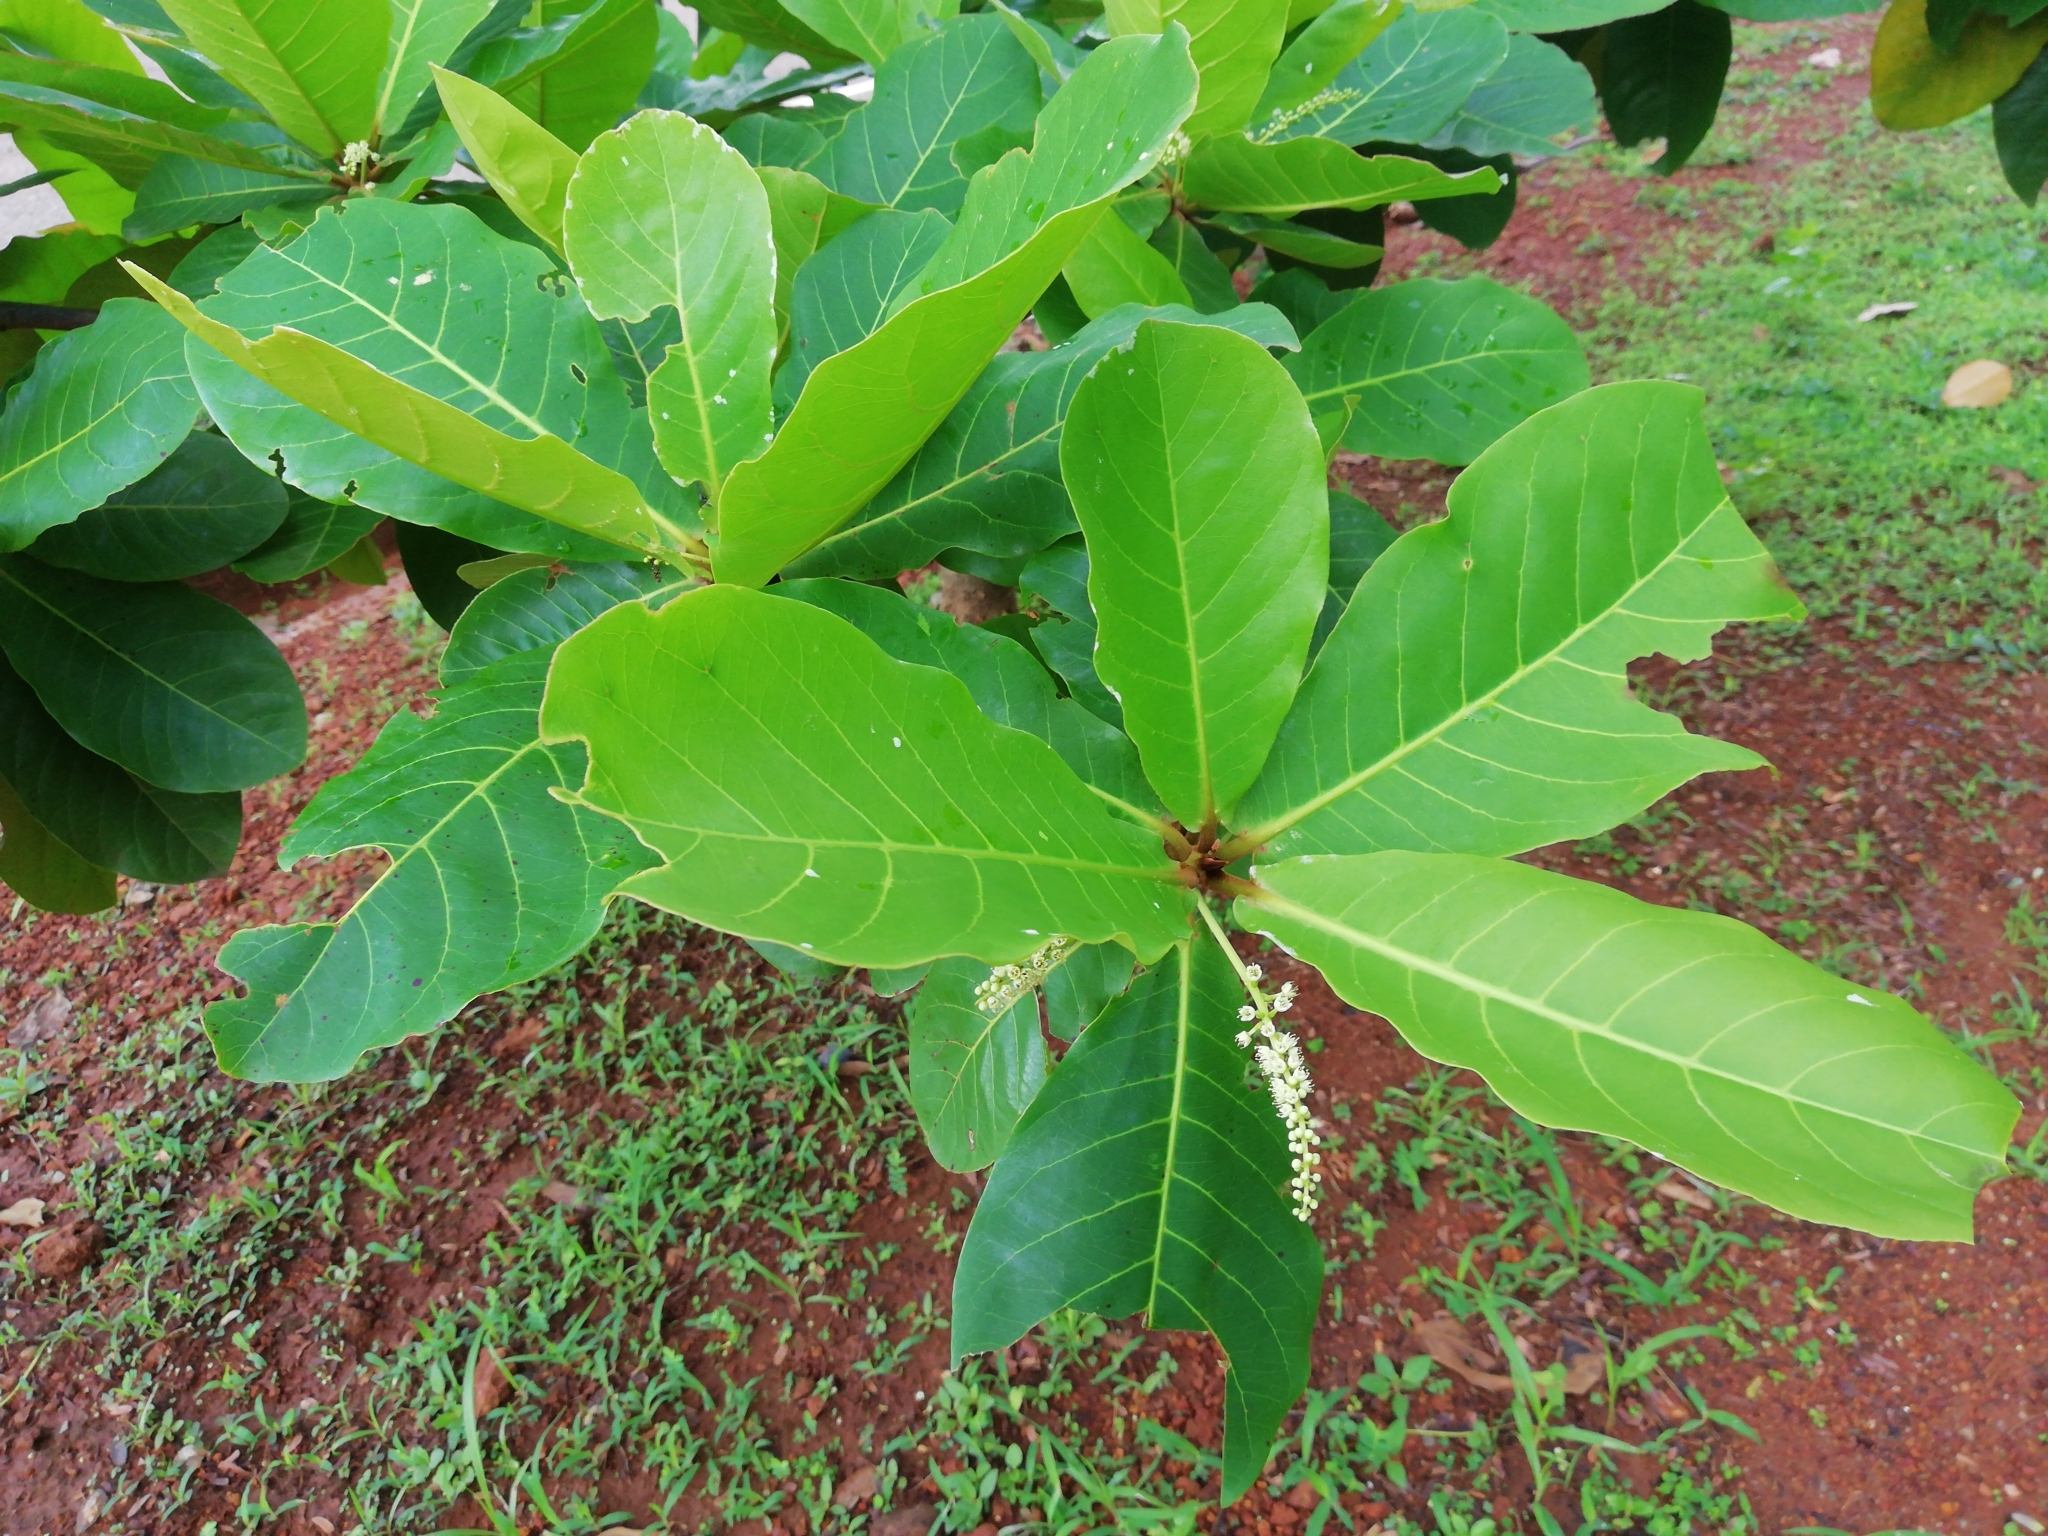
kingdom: Plantae
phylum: Tracheophyta
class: Magnoliopsida
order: Myrtales
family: Combretaceae
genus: Terminalia
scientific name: Terminalia catappa
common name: Tropical almond
